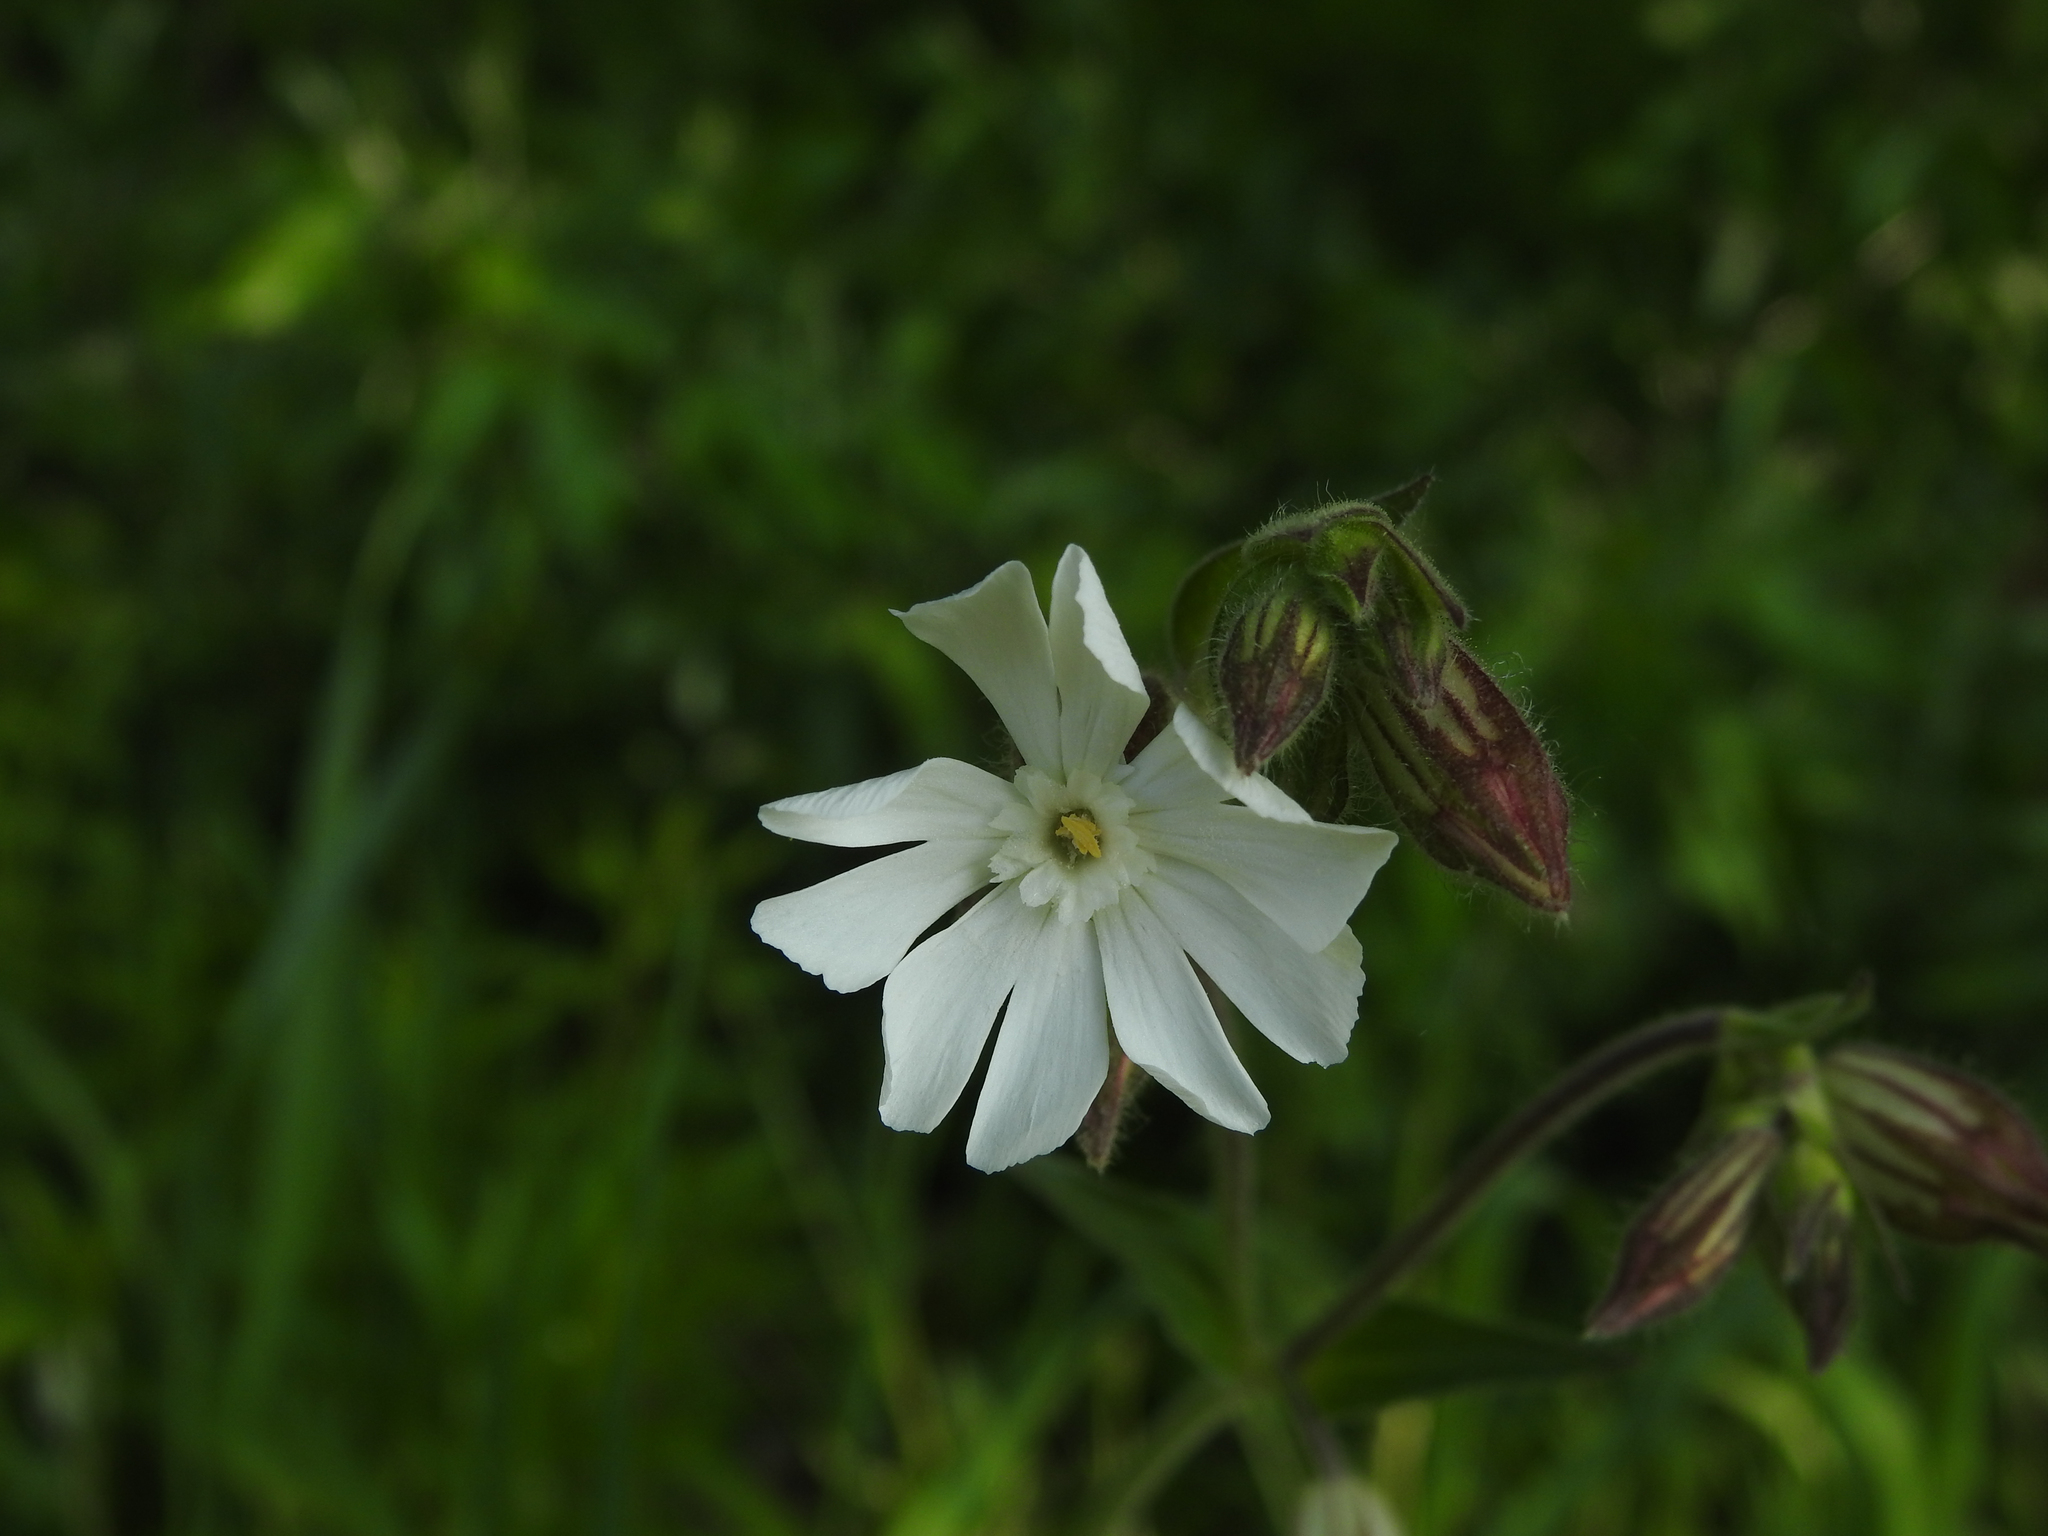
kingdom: Plantae
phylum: Tracheophyta
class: Magnoliopsida
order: Caryophyllales
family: Caryophyllaceae
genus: Silene
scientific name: Silene latifolia
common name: White campion
